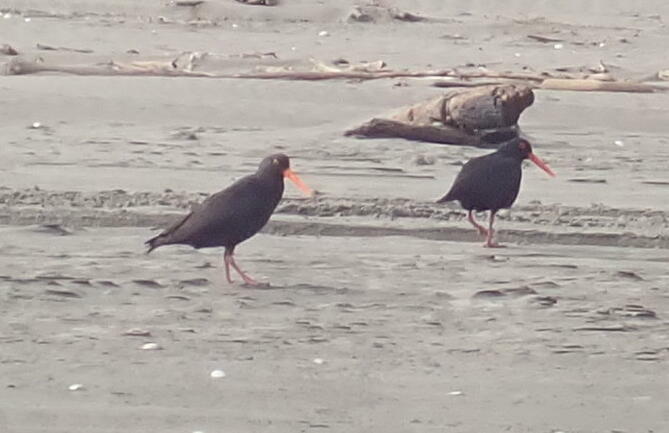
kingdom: Animalia
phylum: Chordata
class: Aves
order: Charadriiformes
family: Haematopodidae
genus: Haematopus
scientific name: Haematopus unicolor
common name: Variable oystercatcher
